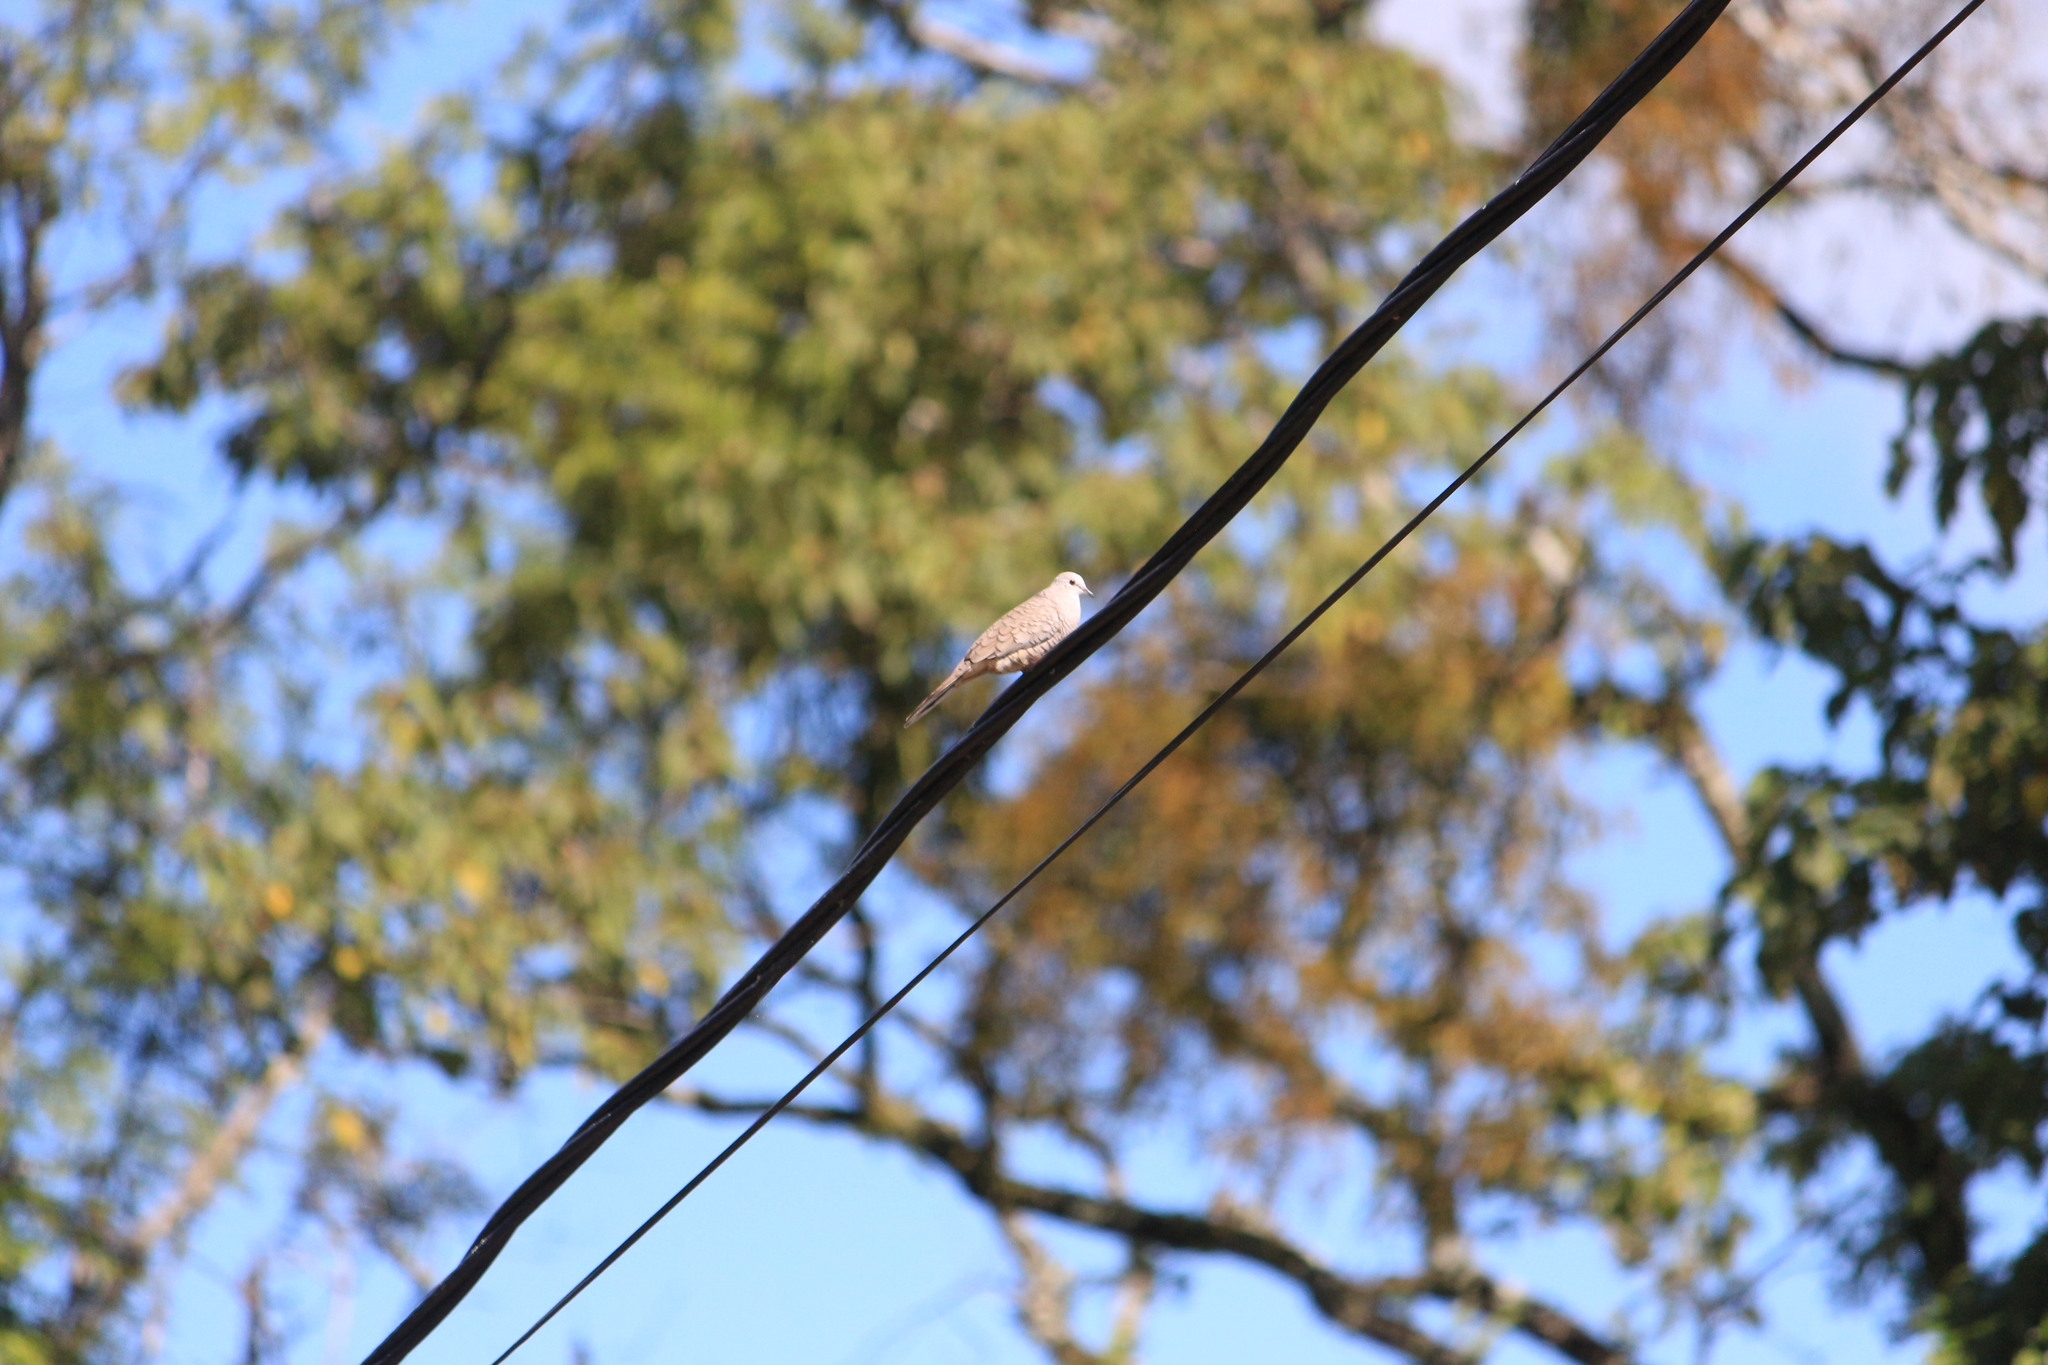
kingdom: Animalia
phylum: Chordata
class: Aves
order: Columbiformes
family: Columbidae
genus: Columbina
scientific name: Columbina inca
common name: Inca dove
